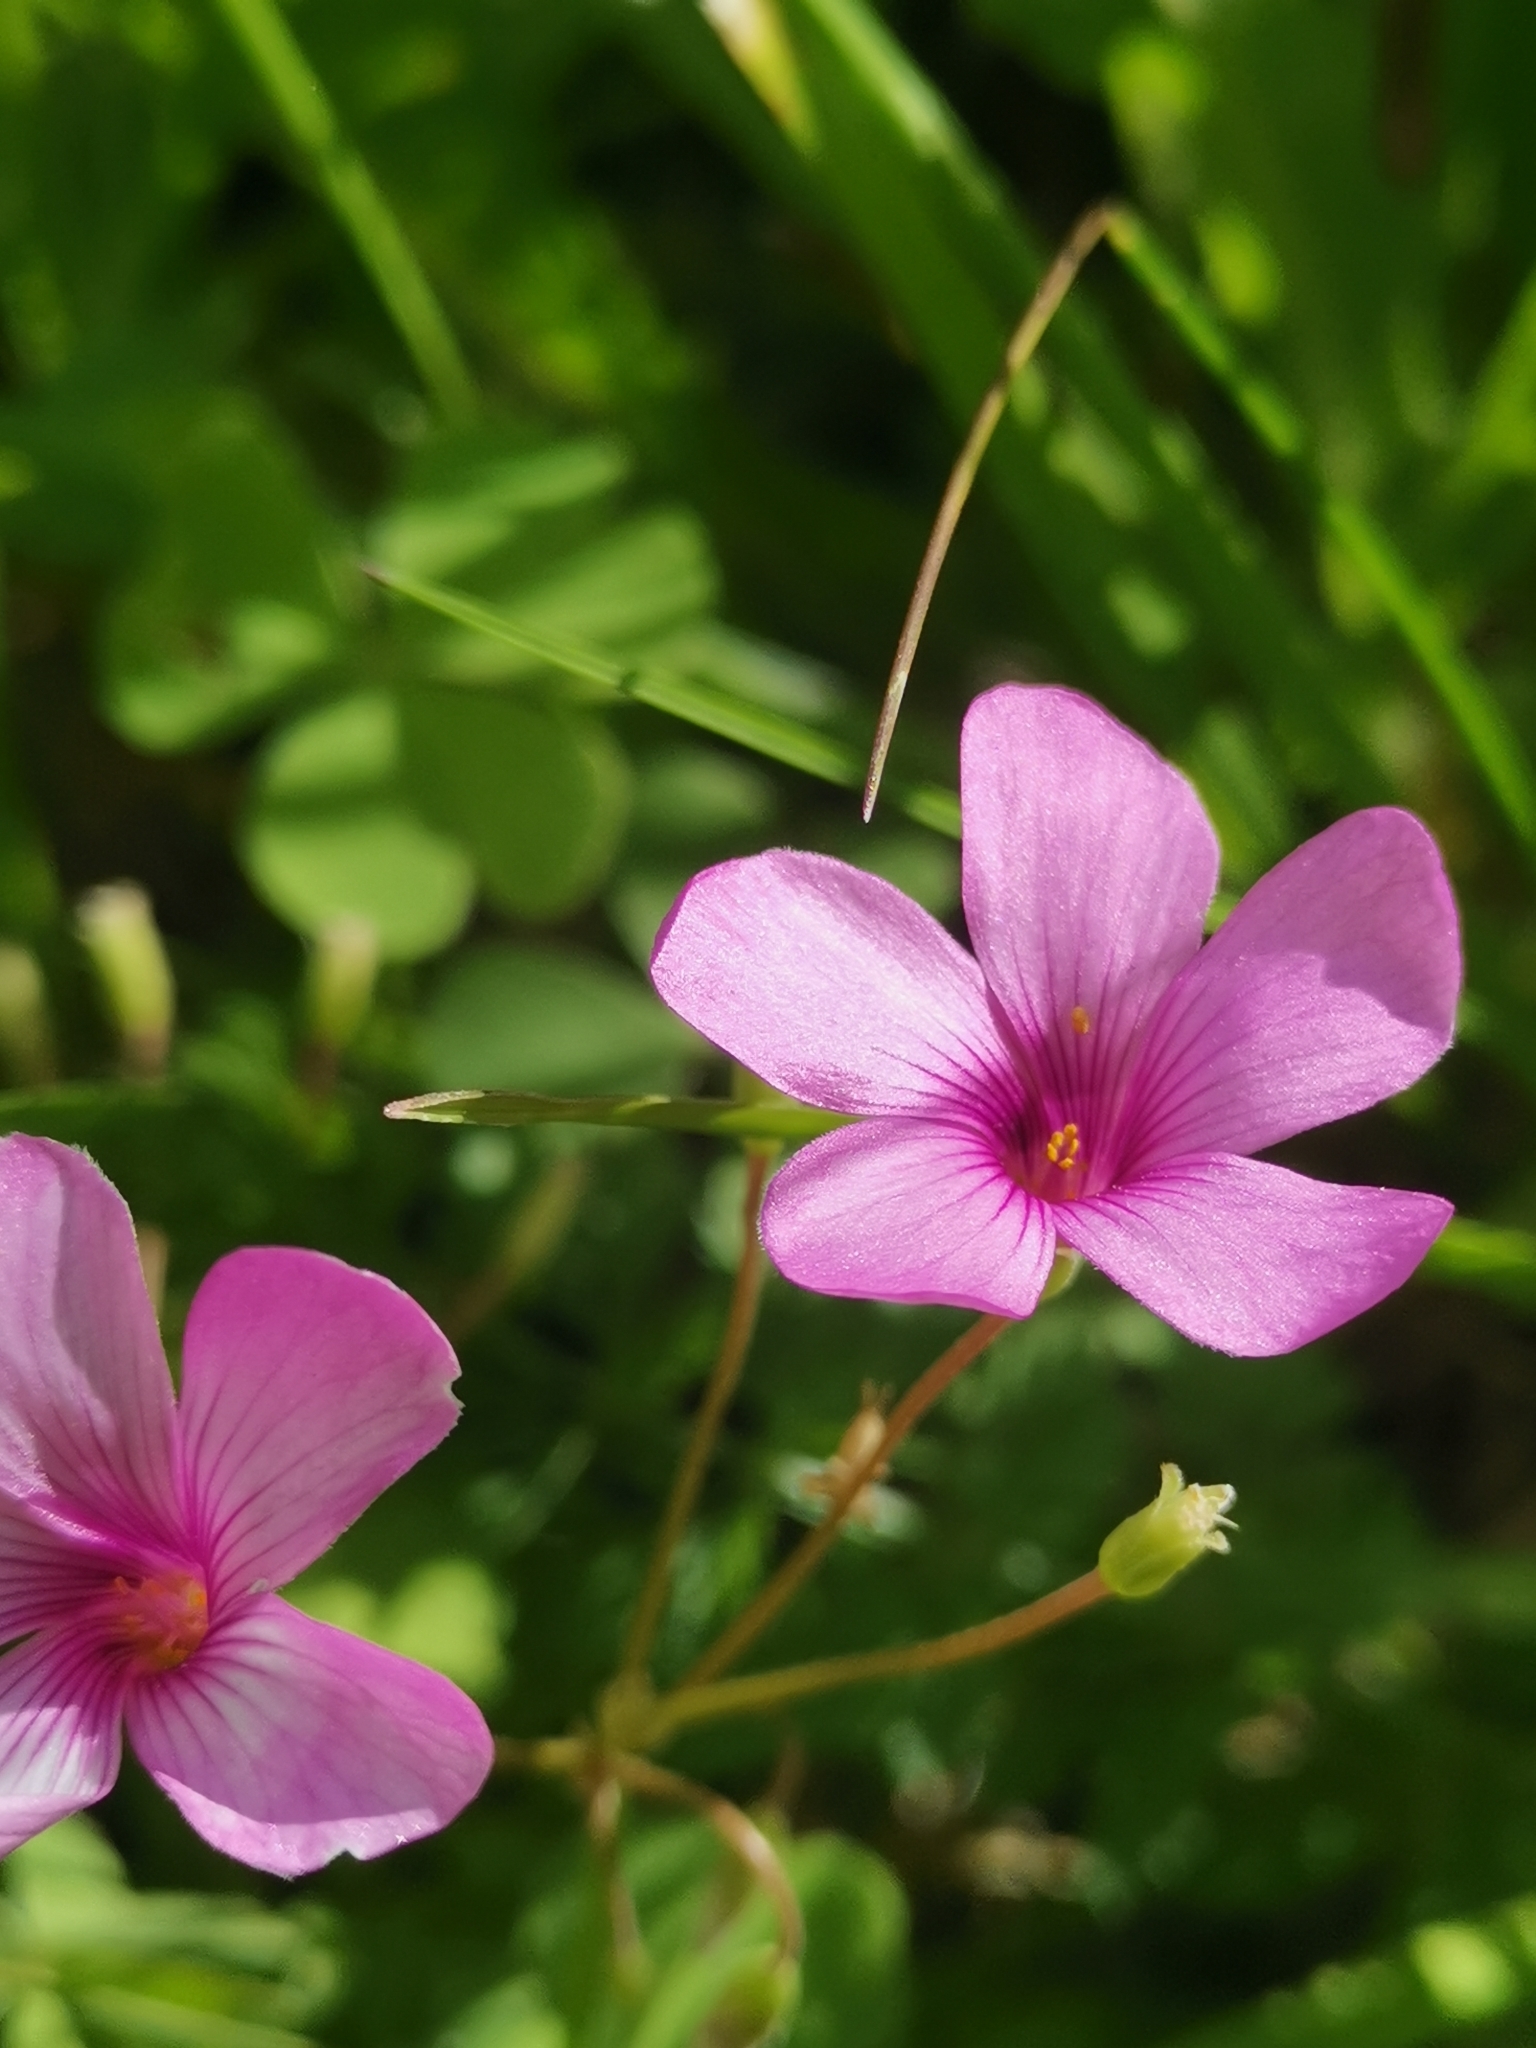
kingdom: Plantae
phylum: Tracheophyta
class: Magnoliopsida
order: Oxalidales
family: Oxalidaceae
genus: Oxalis
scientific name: Oxalis articulata
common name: Pink-sorrel
